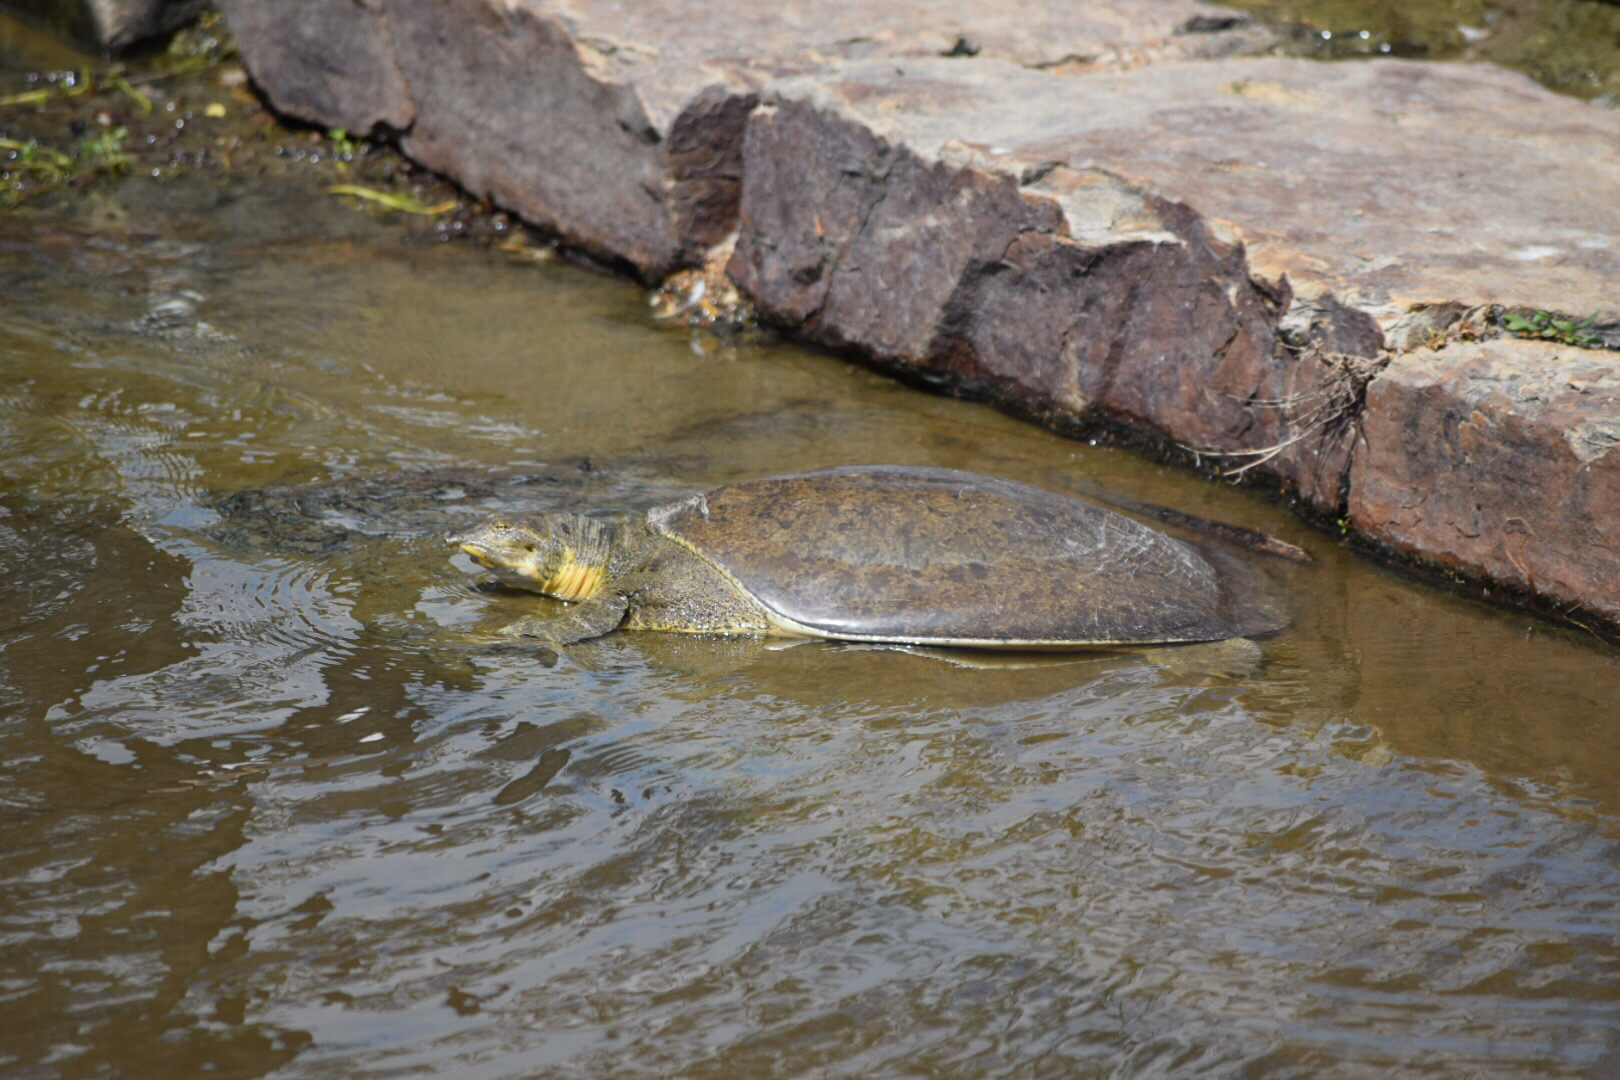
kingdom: Animalia
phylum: Chordata
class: Testudines
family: Trionychidae
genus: Apalone
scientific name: Apalone spinifera
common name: Spiny softshell turtle
